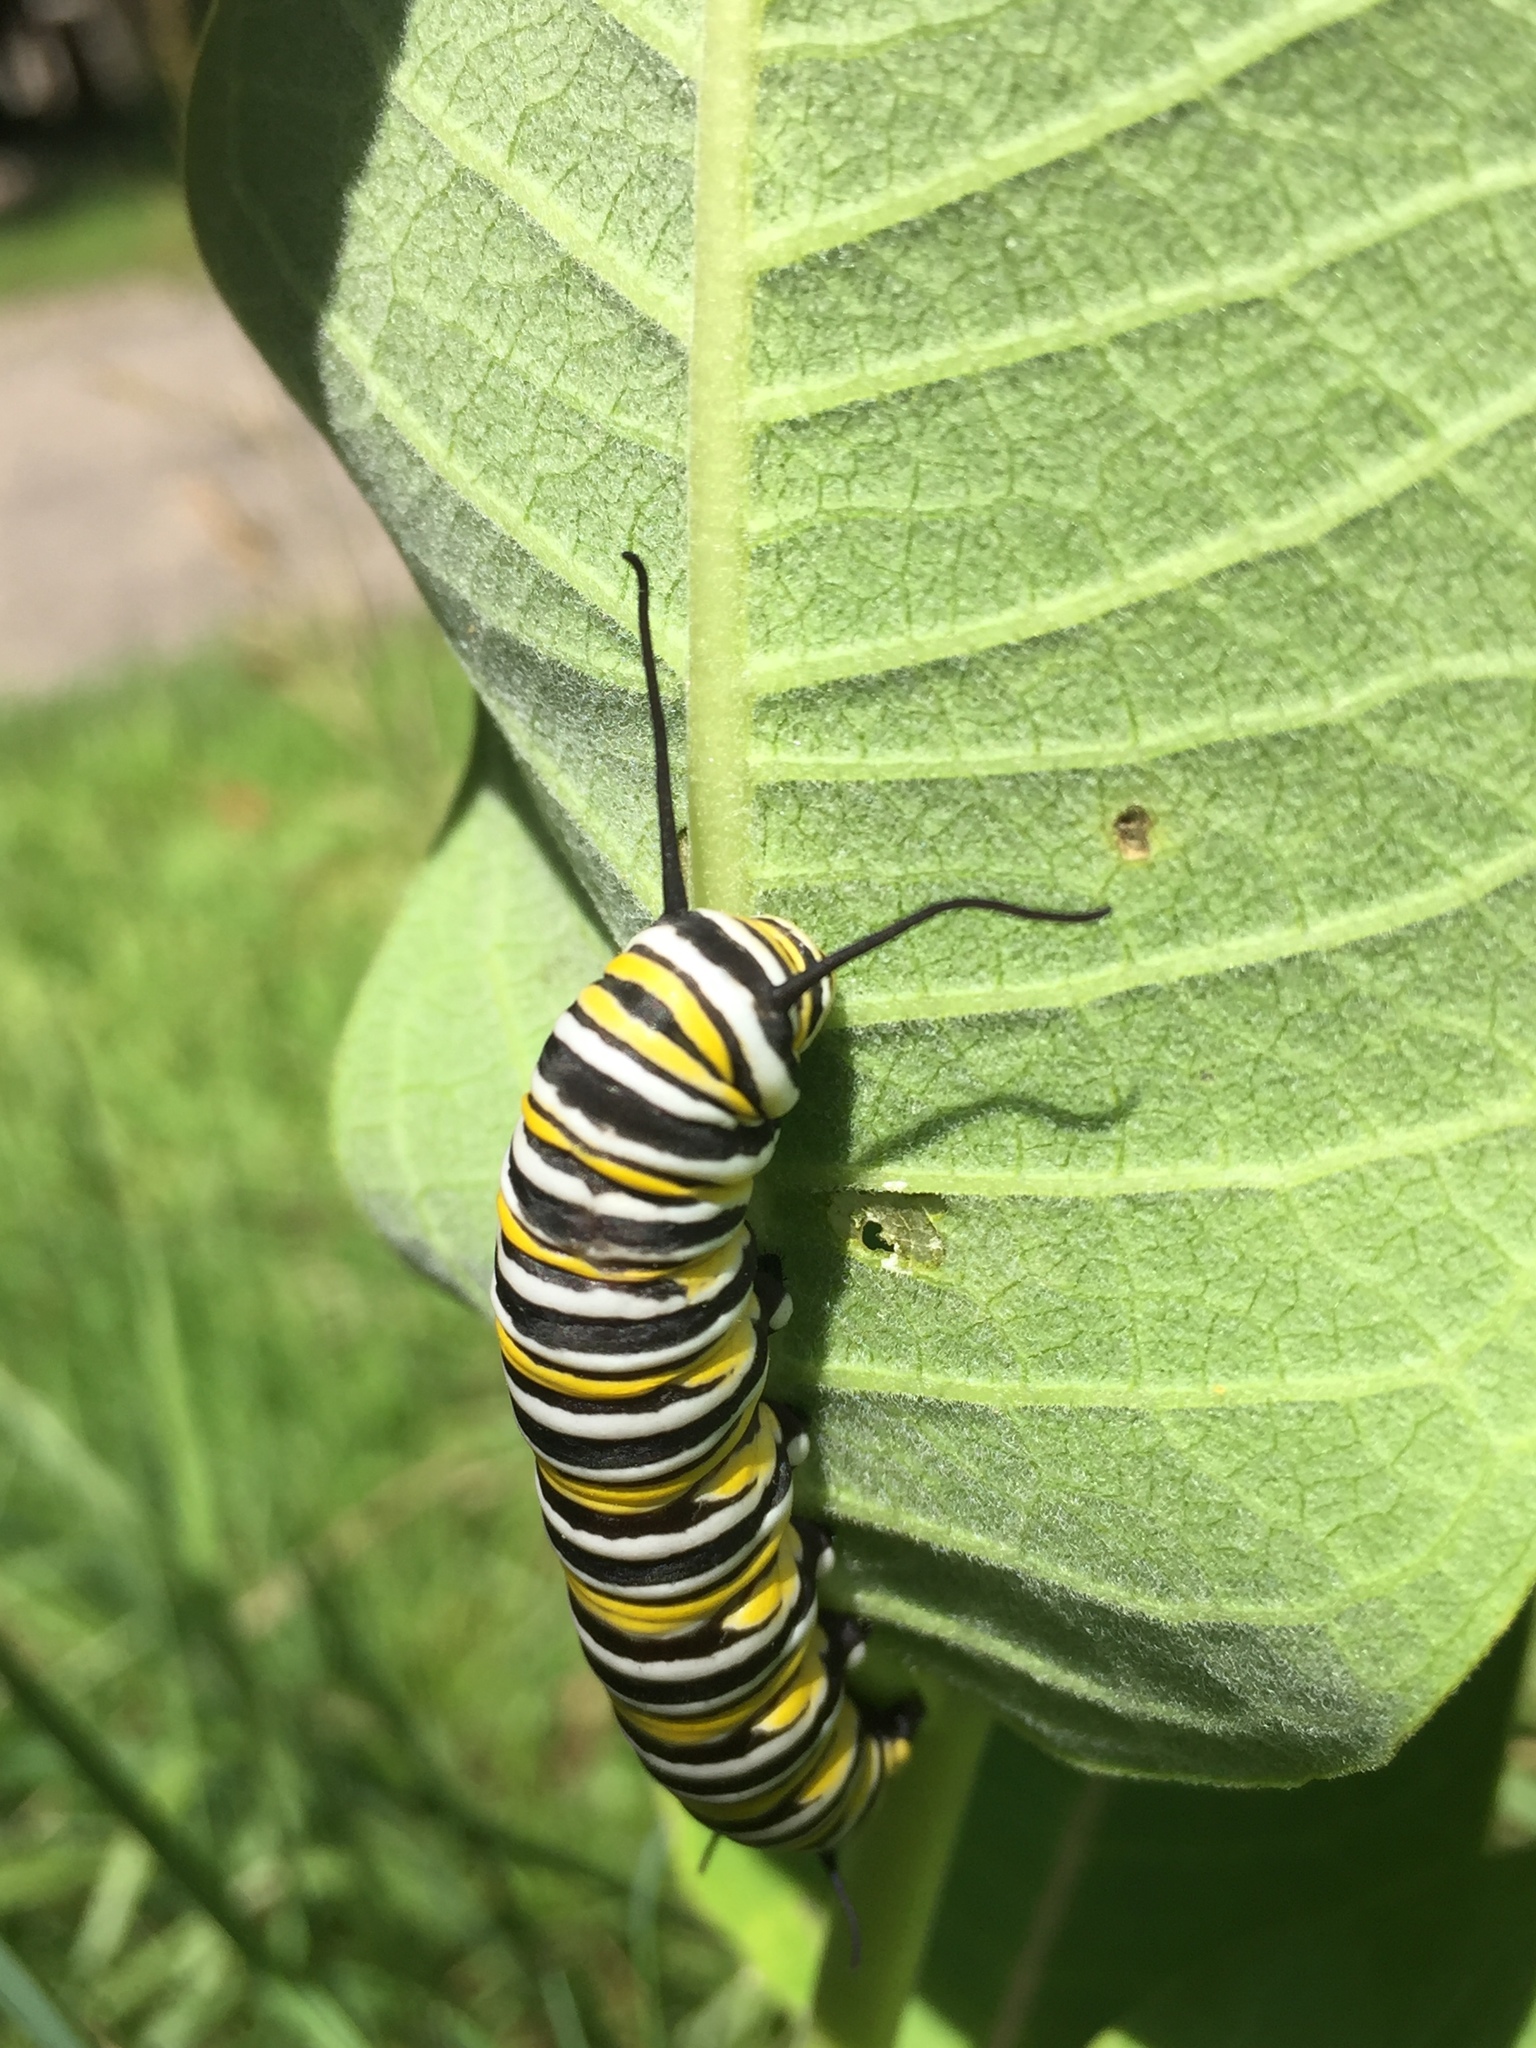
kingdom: Animalia
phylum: Arthropoda
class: Insecta
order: Lepidoptera
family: Nymphalidae
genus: Danaus
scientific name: Danaus plexippus
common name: Monarch
